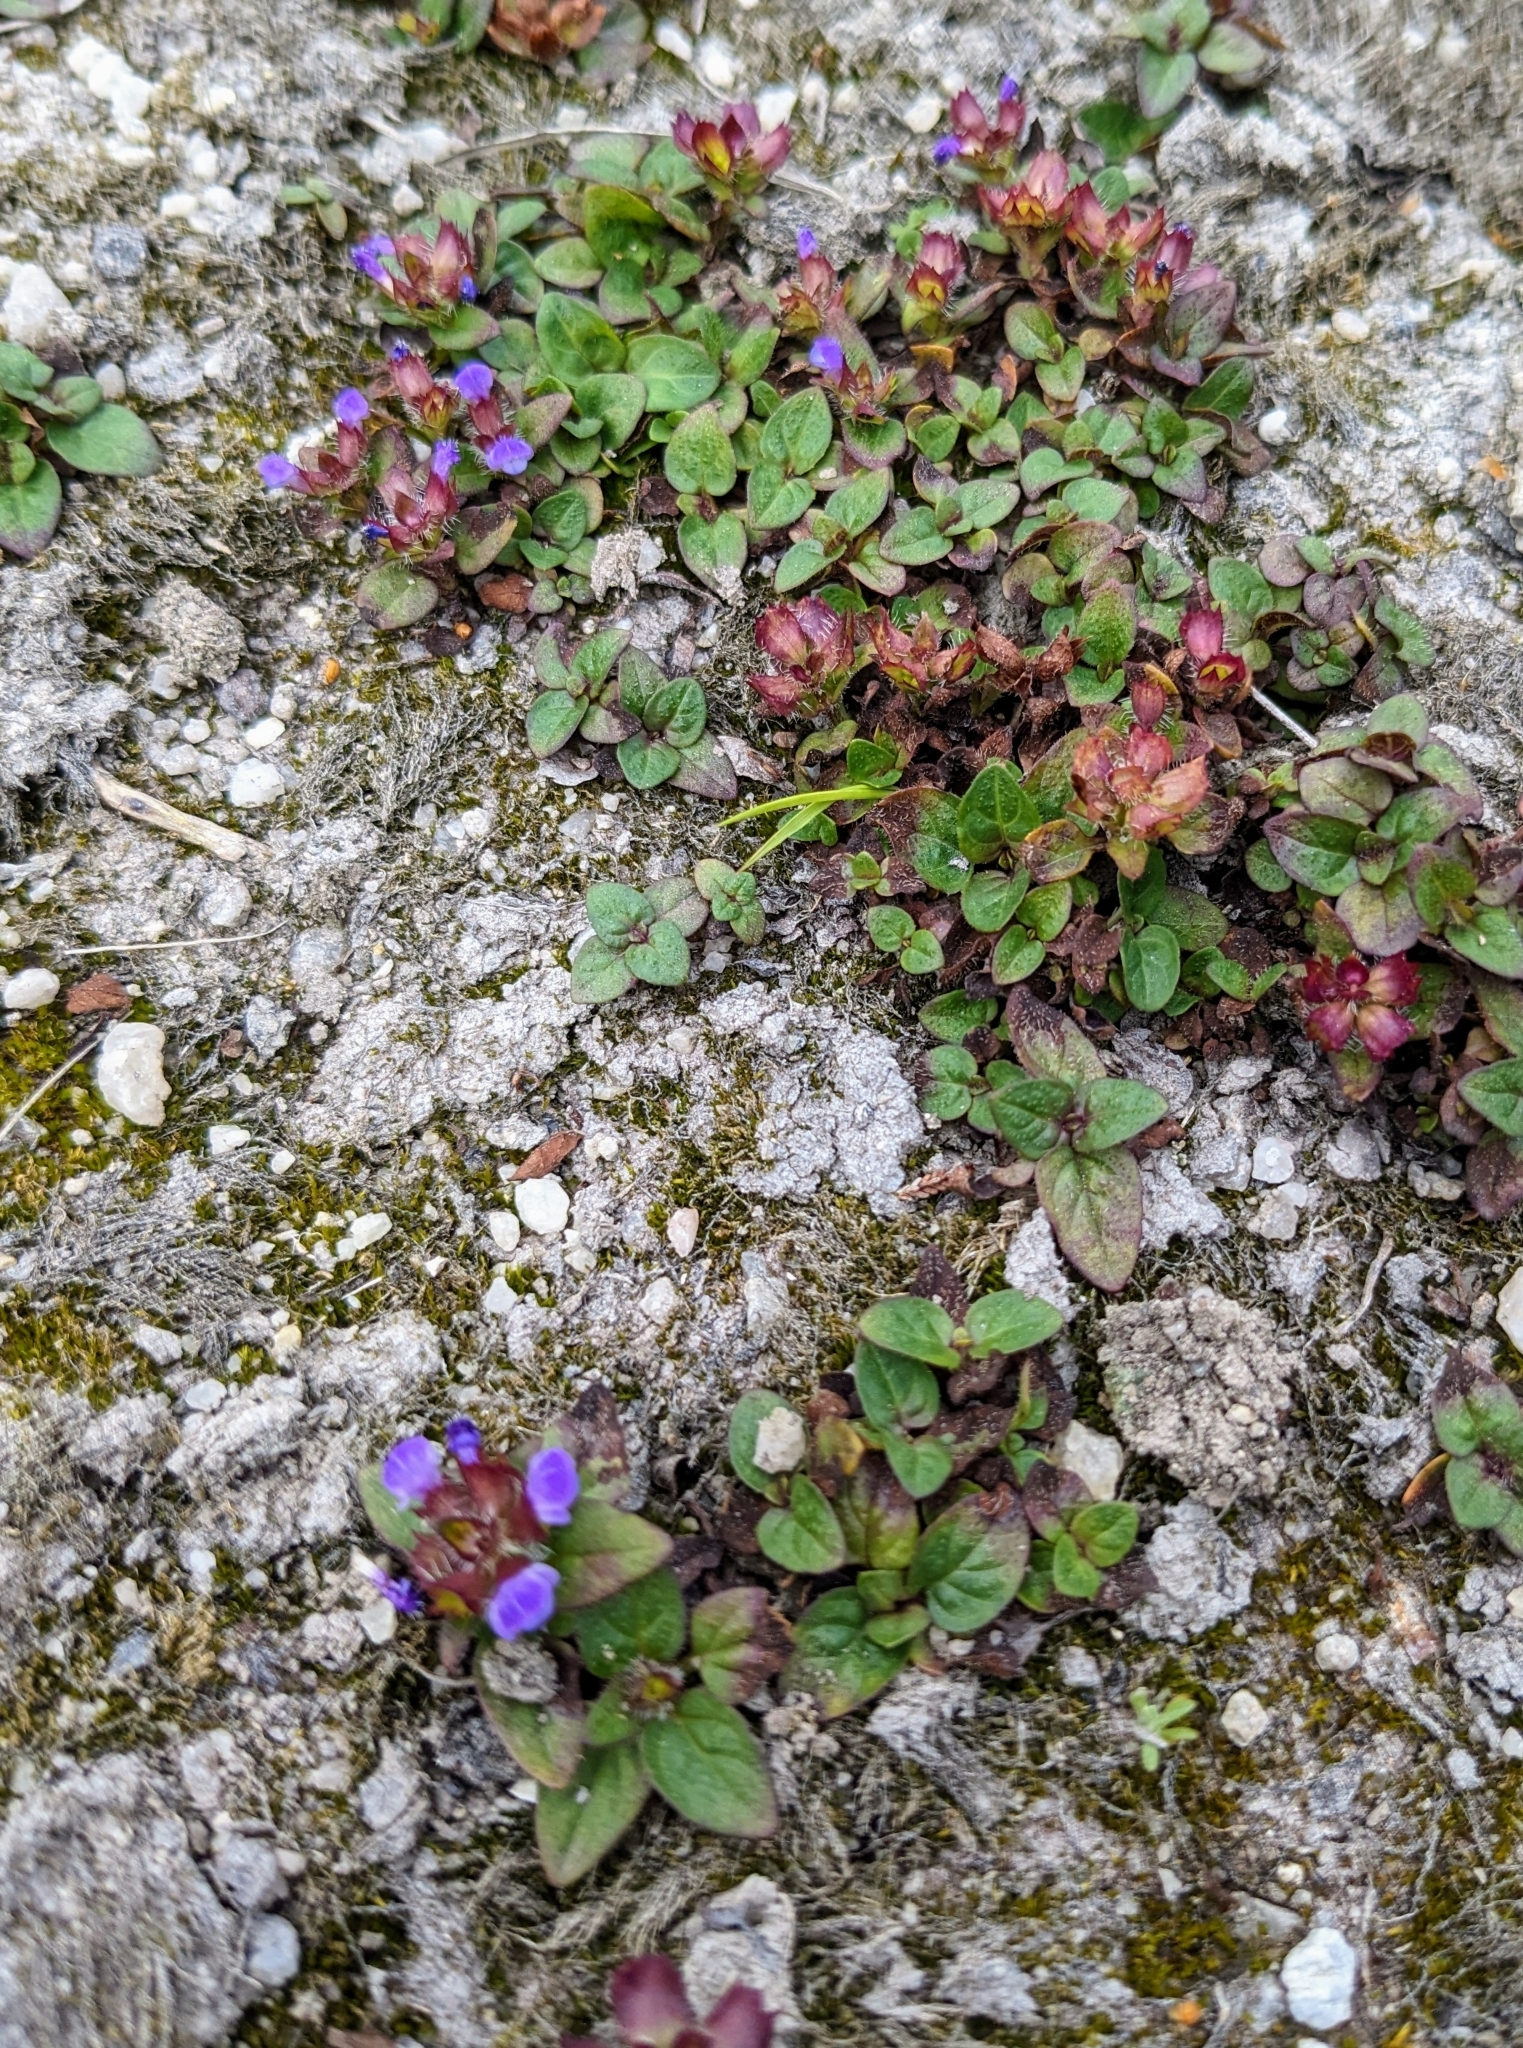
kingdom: Plantae
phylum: Tracheophyta
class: Magnoliopsida
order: Lamiales
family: Lamiaceae
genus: Prunella
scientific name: Prunella vulgaris
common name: Heal-all
